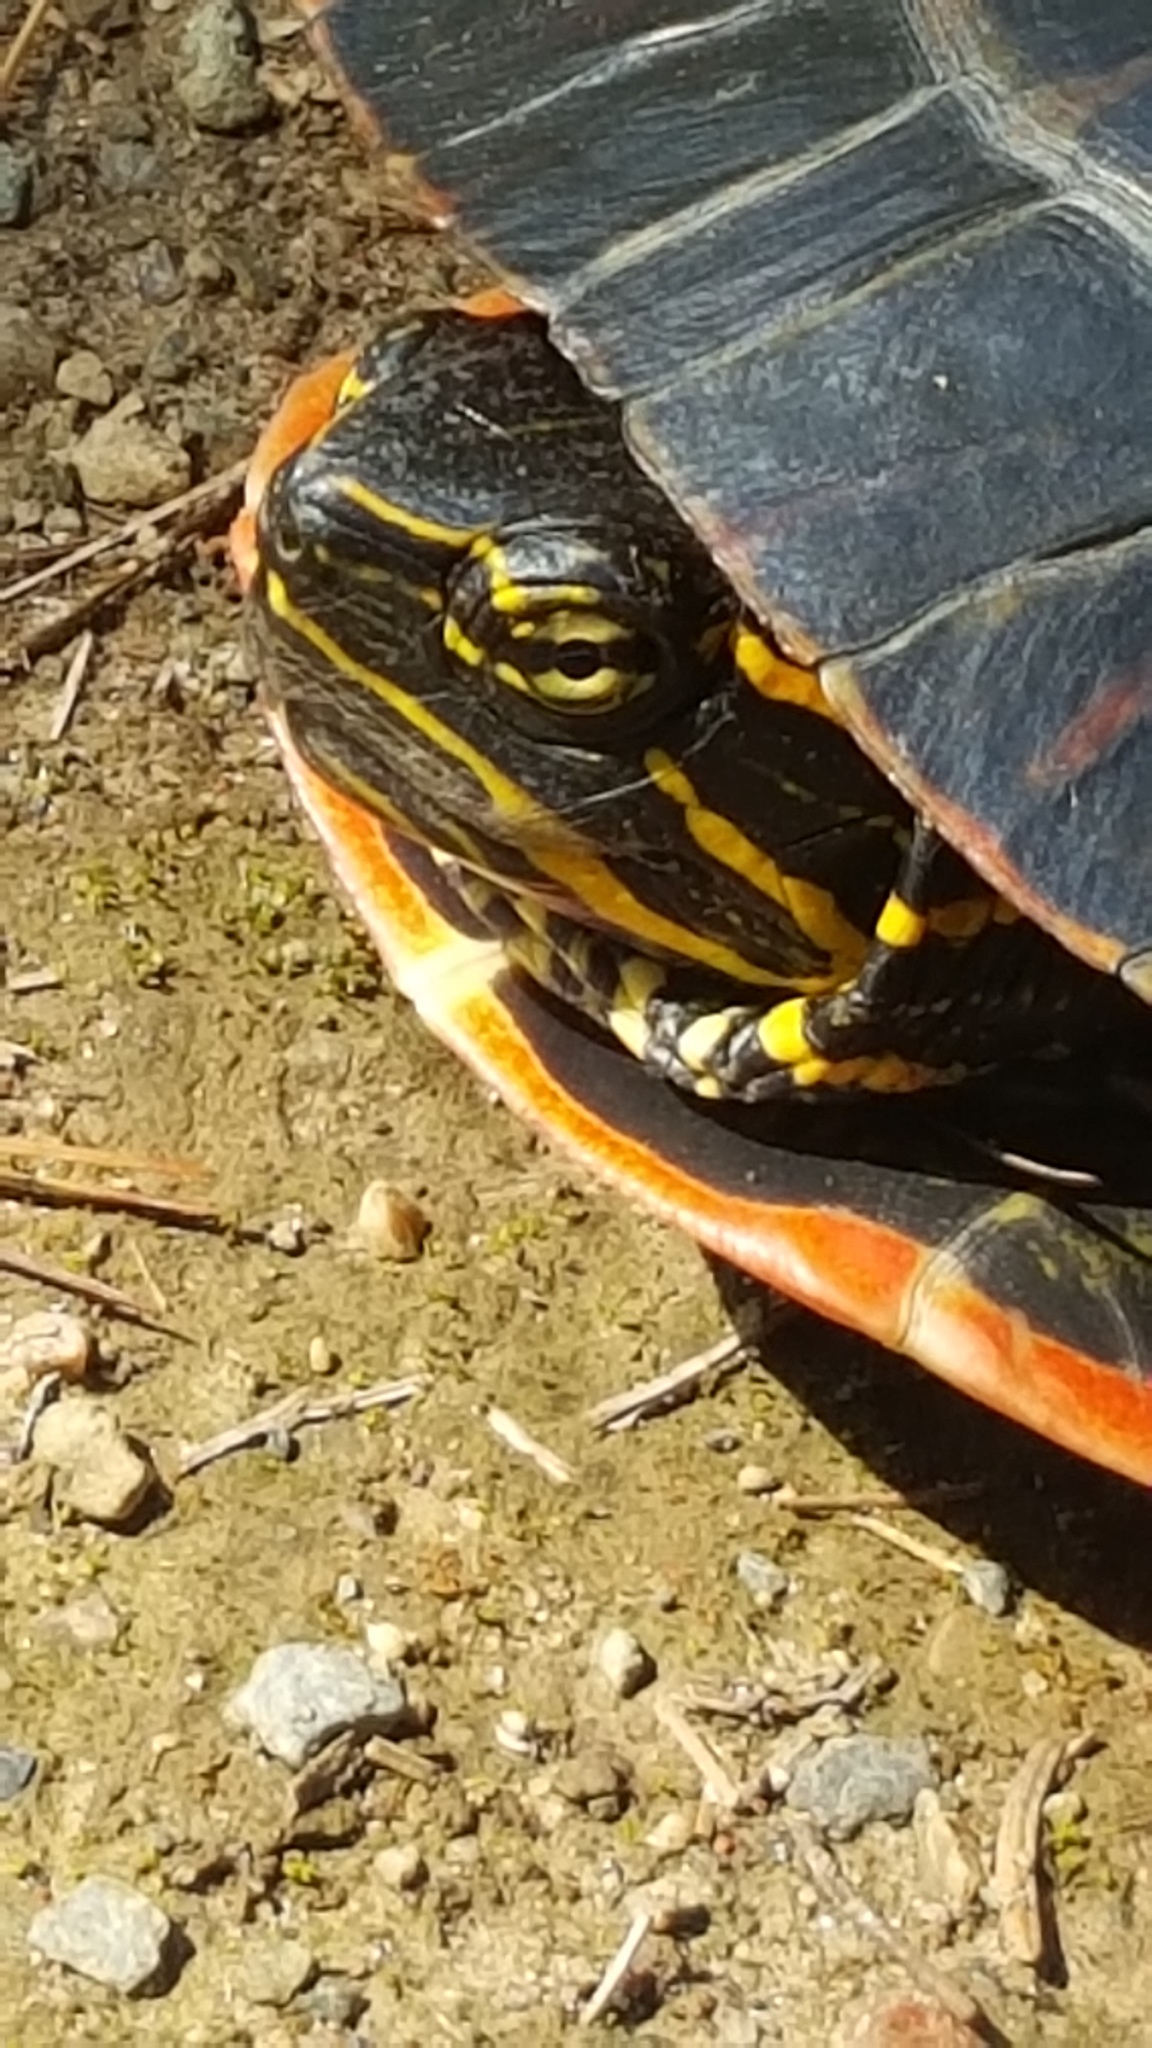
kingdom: Animalia
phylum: Chordata
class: Testudines
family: Emydidae
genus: Chrysemys
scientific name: Chrysemys picta
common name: Painted turtle
